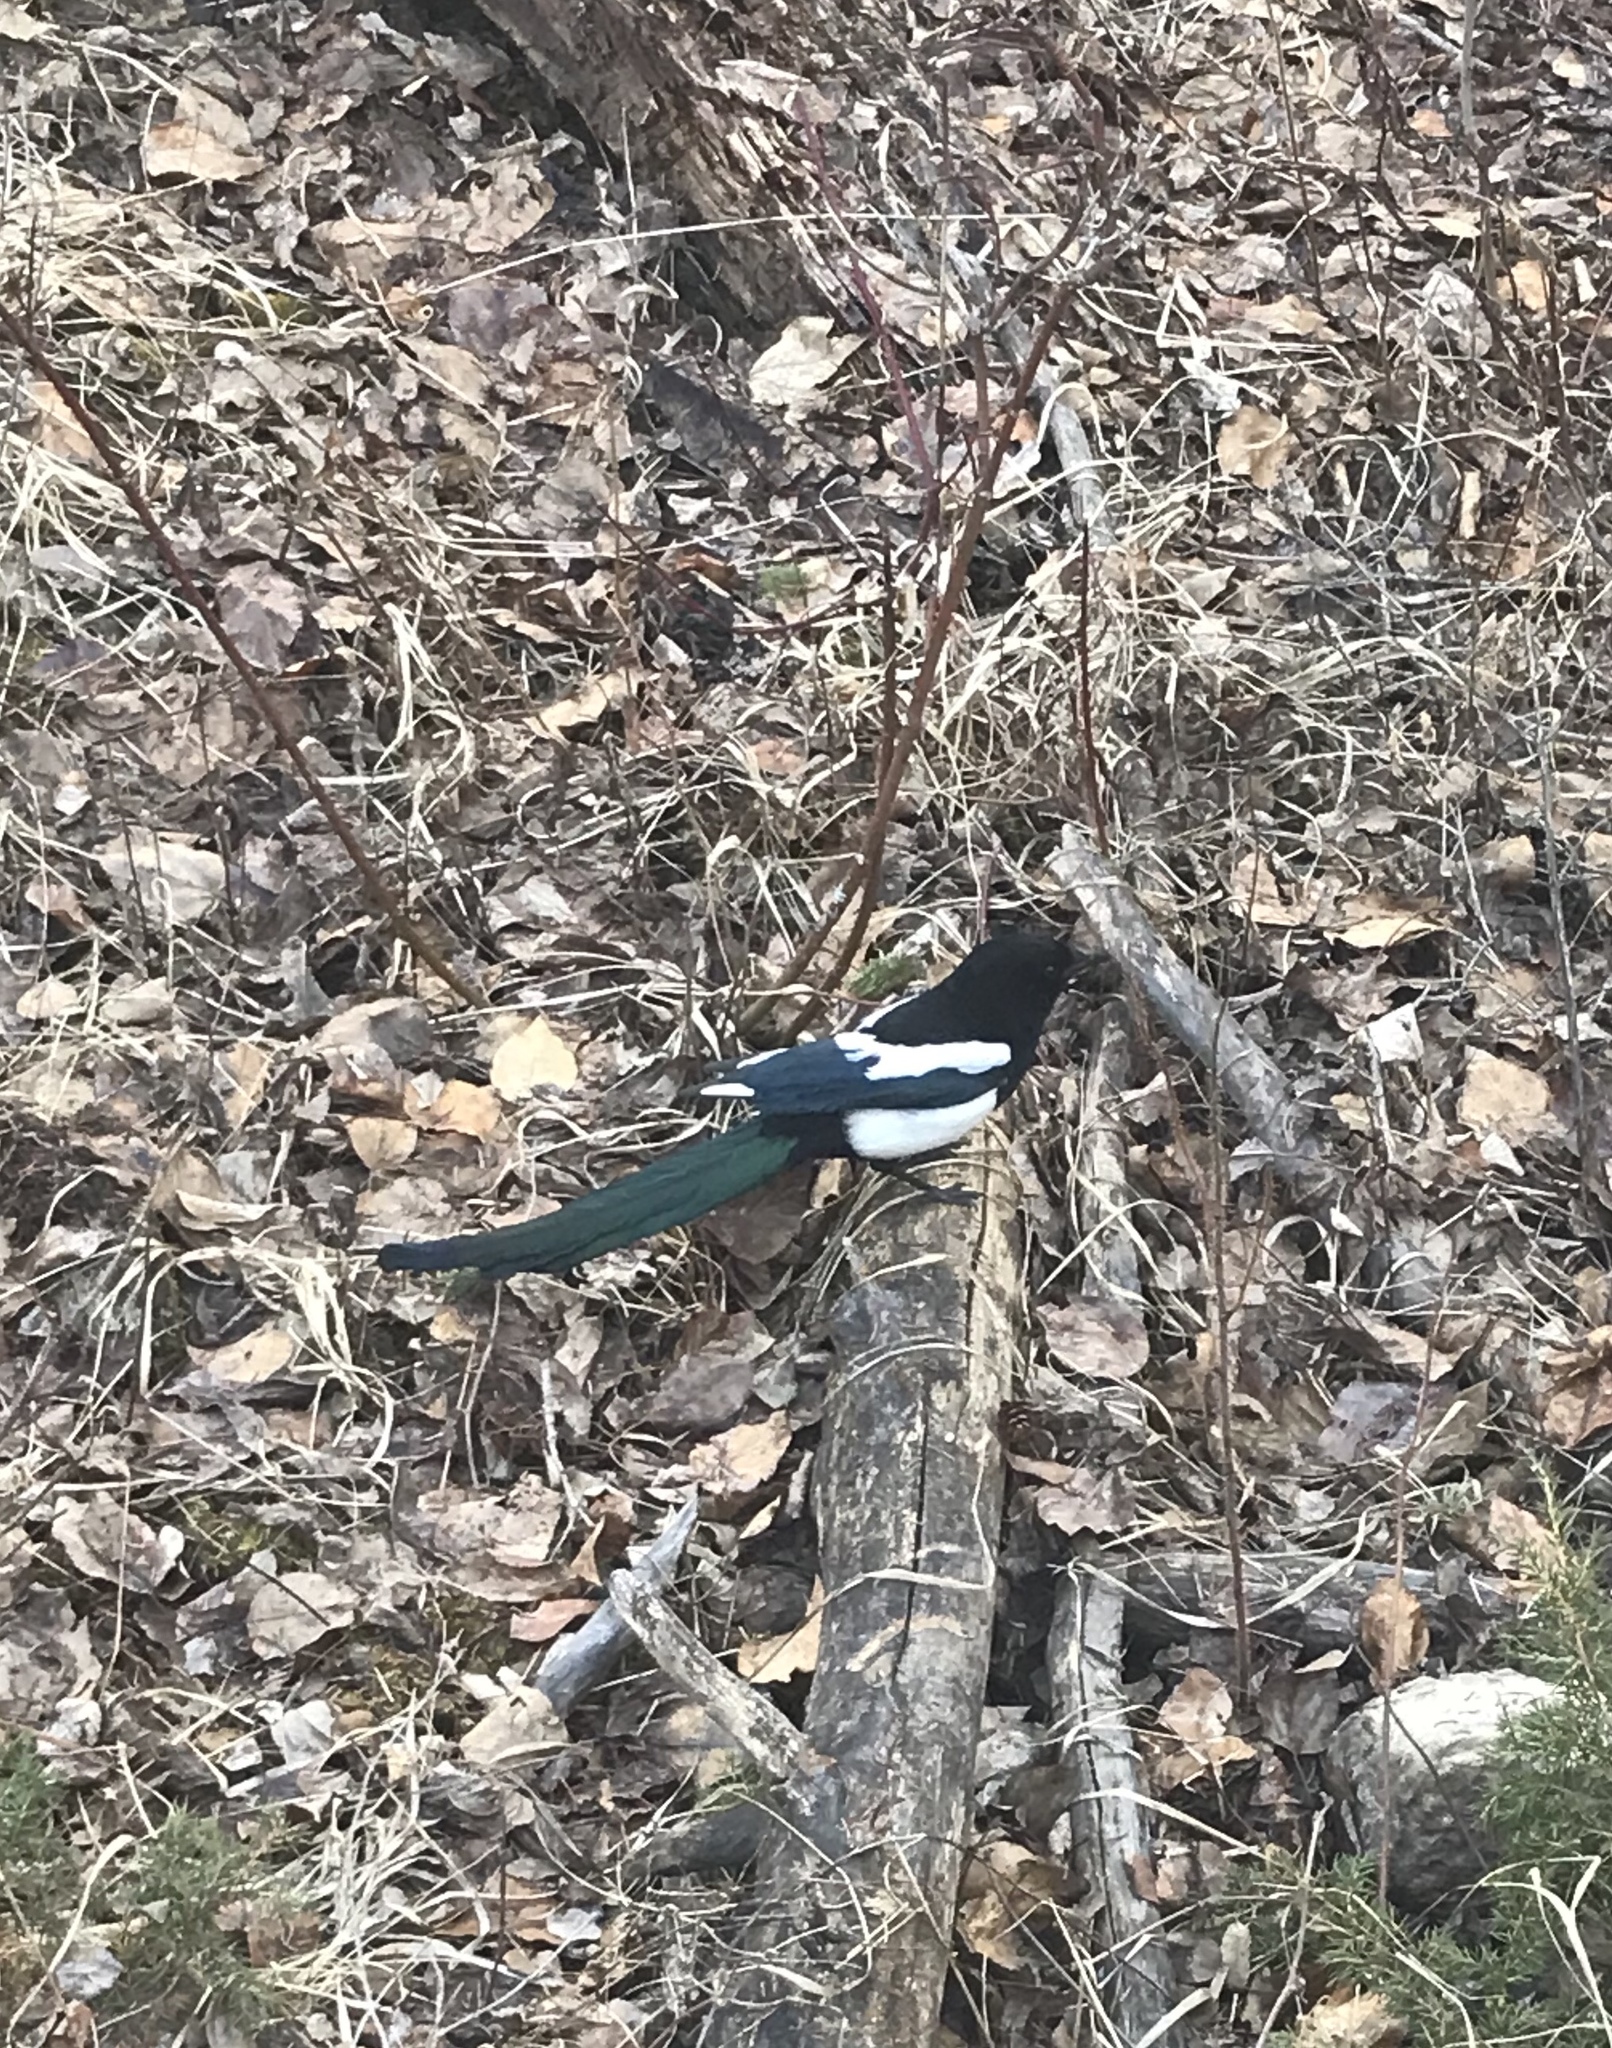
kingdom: Animalia
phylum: Chordata
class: Aves
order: Passeriformes
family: Corvidae
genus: Pica
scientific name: Pica hudsonia
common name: Black-billed magpie
